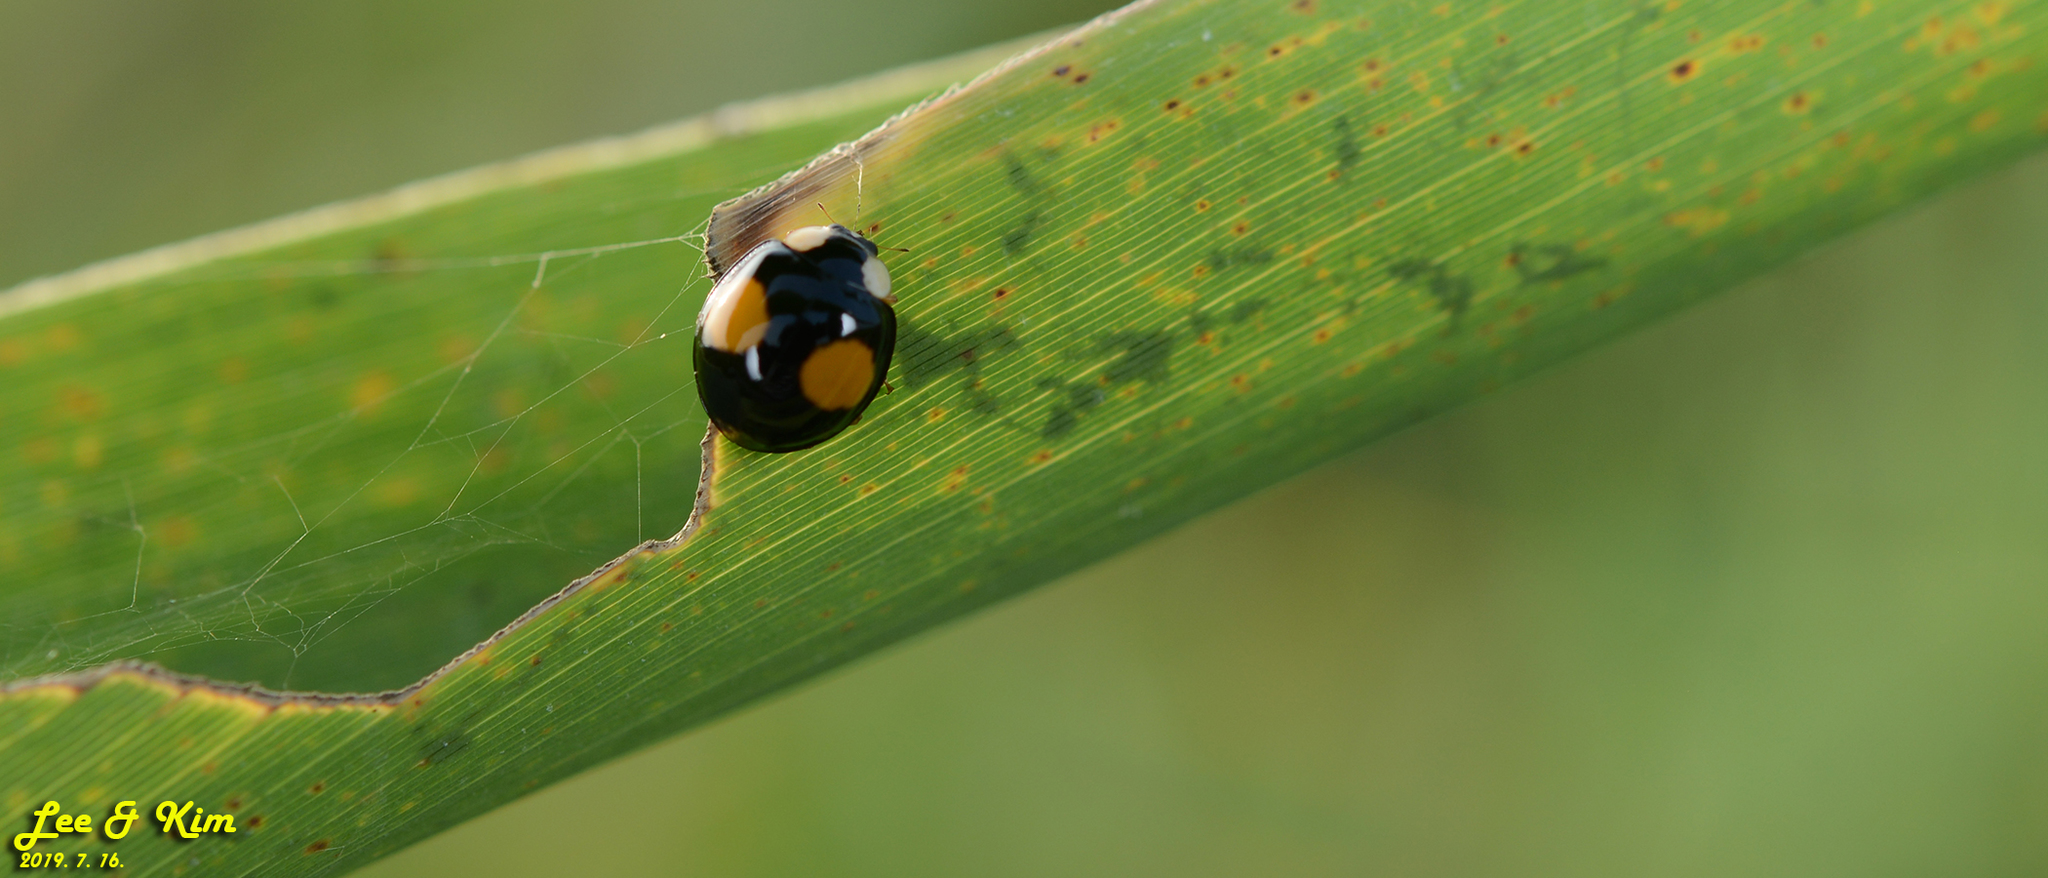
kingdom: Animalia
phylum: Arthropoda
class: Insecta
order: Coleoptera
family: Coccinellidae
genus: Harmonia
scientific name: Harmonia axyridis
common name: Harlequin ladybird
